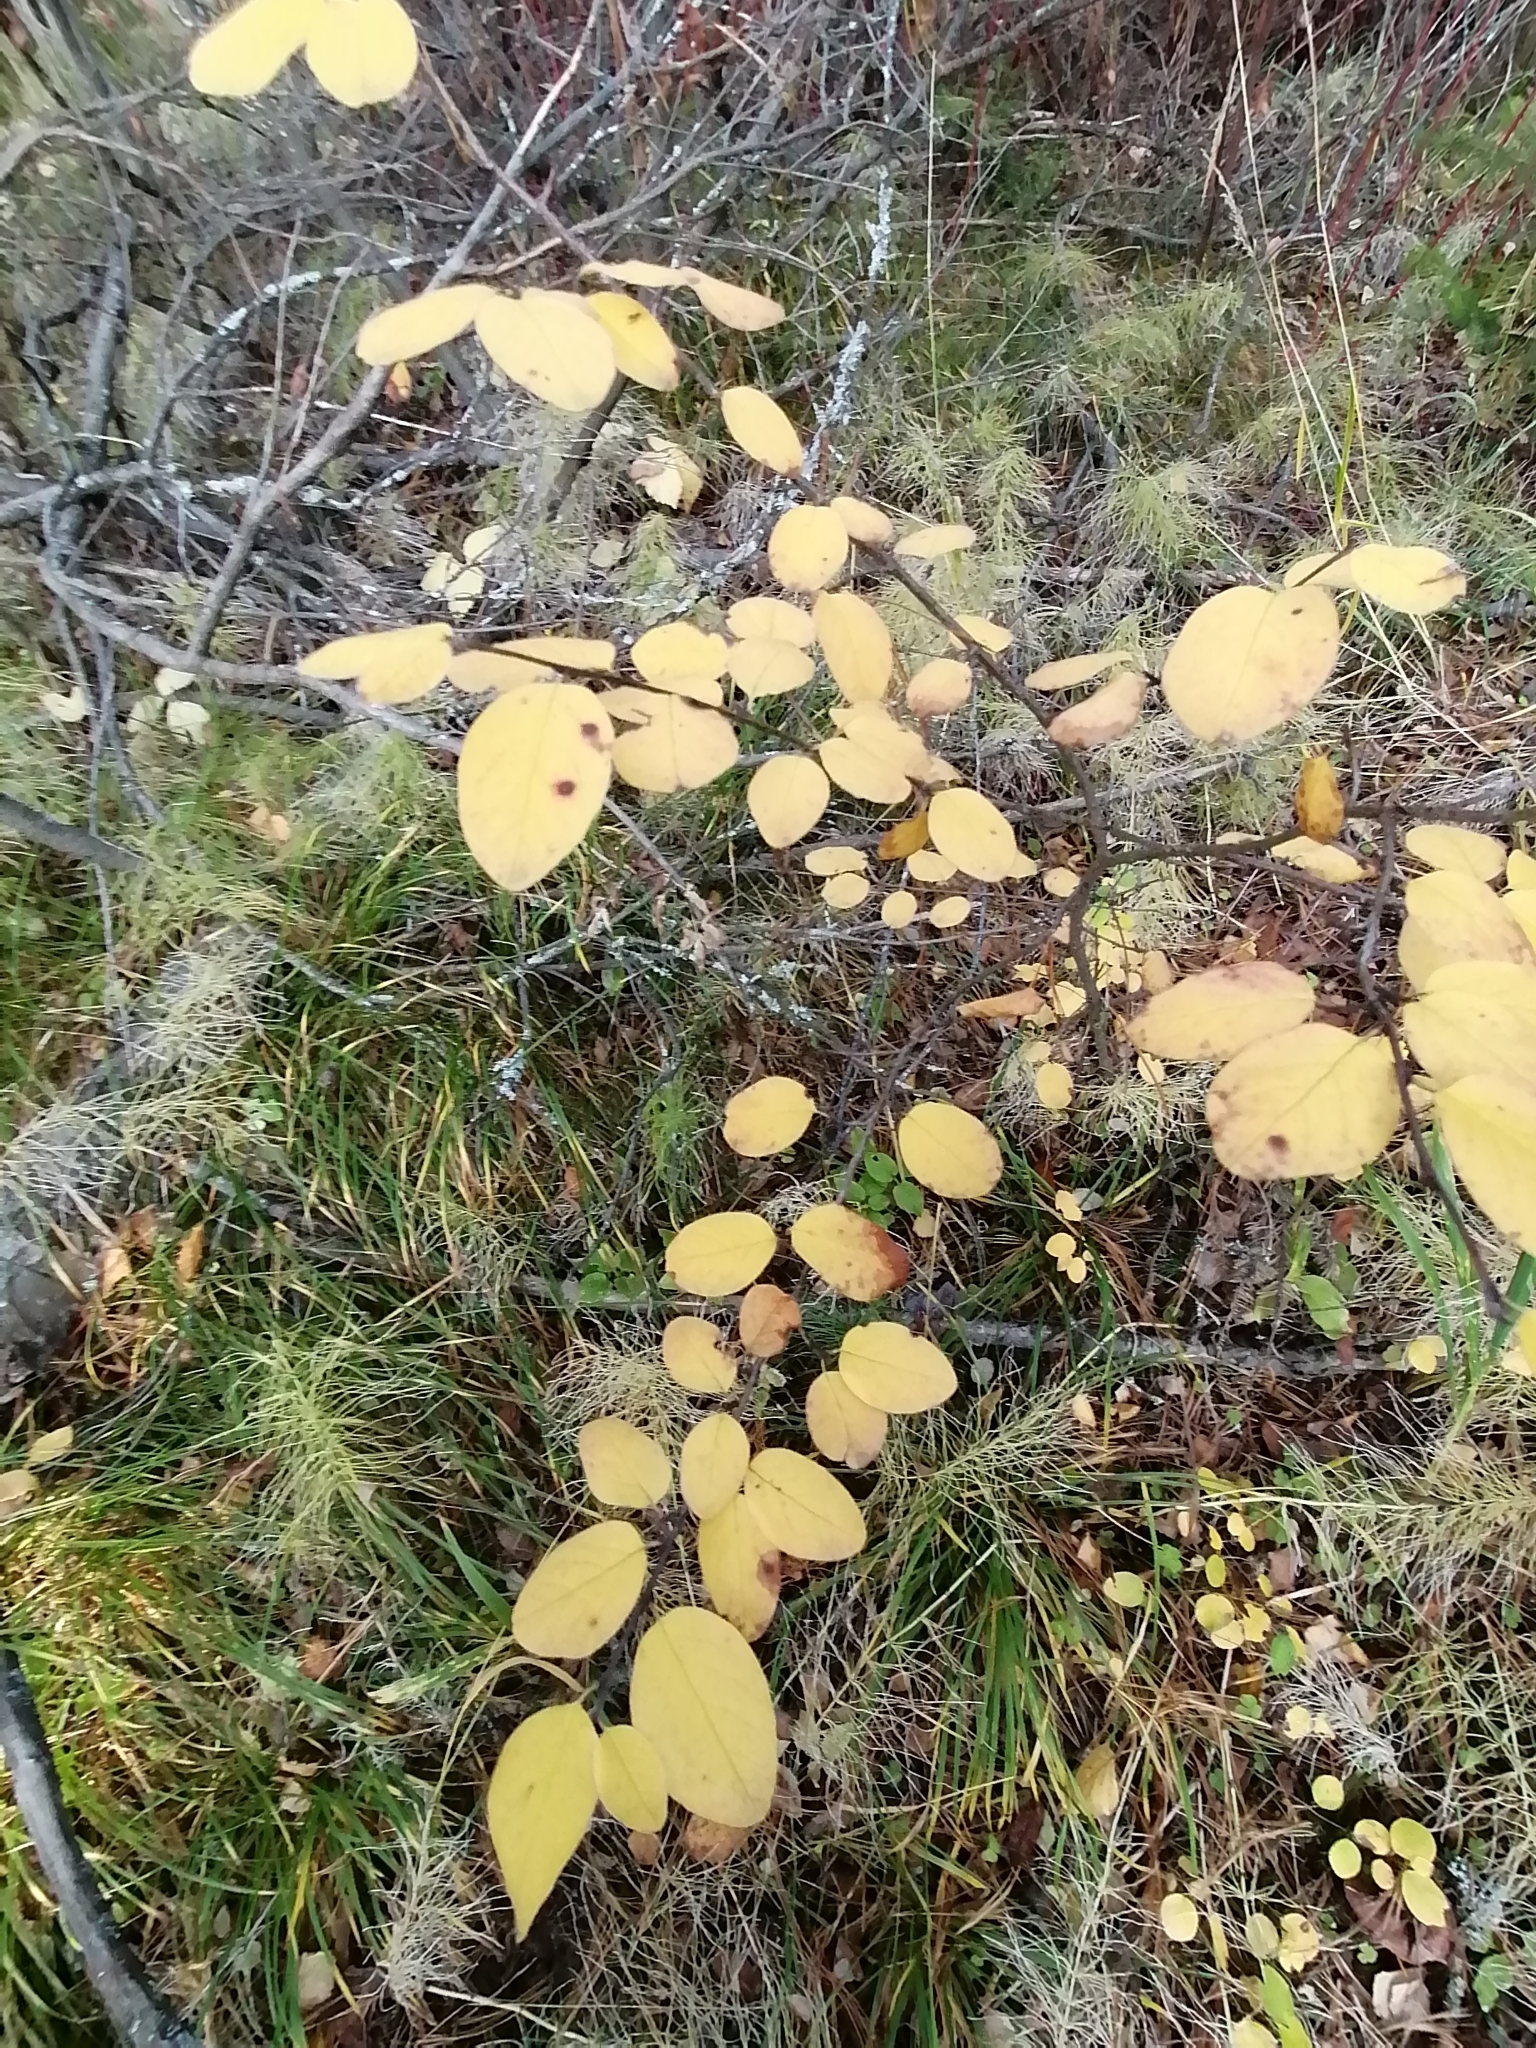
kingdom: Plantae
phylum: Tracheophyta
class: Magnoliopsida
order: Rosales
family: Rosaceae
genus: Cotoneaster
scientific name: Cotoneaster melanocarpus
